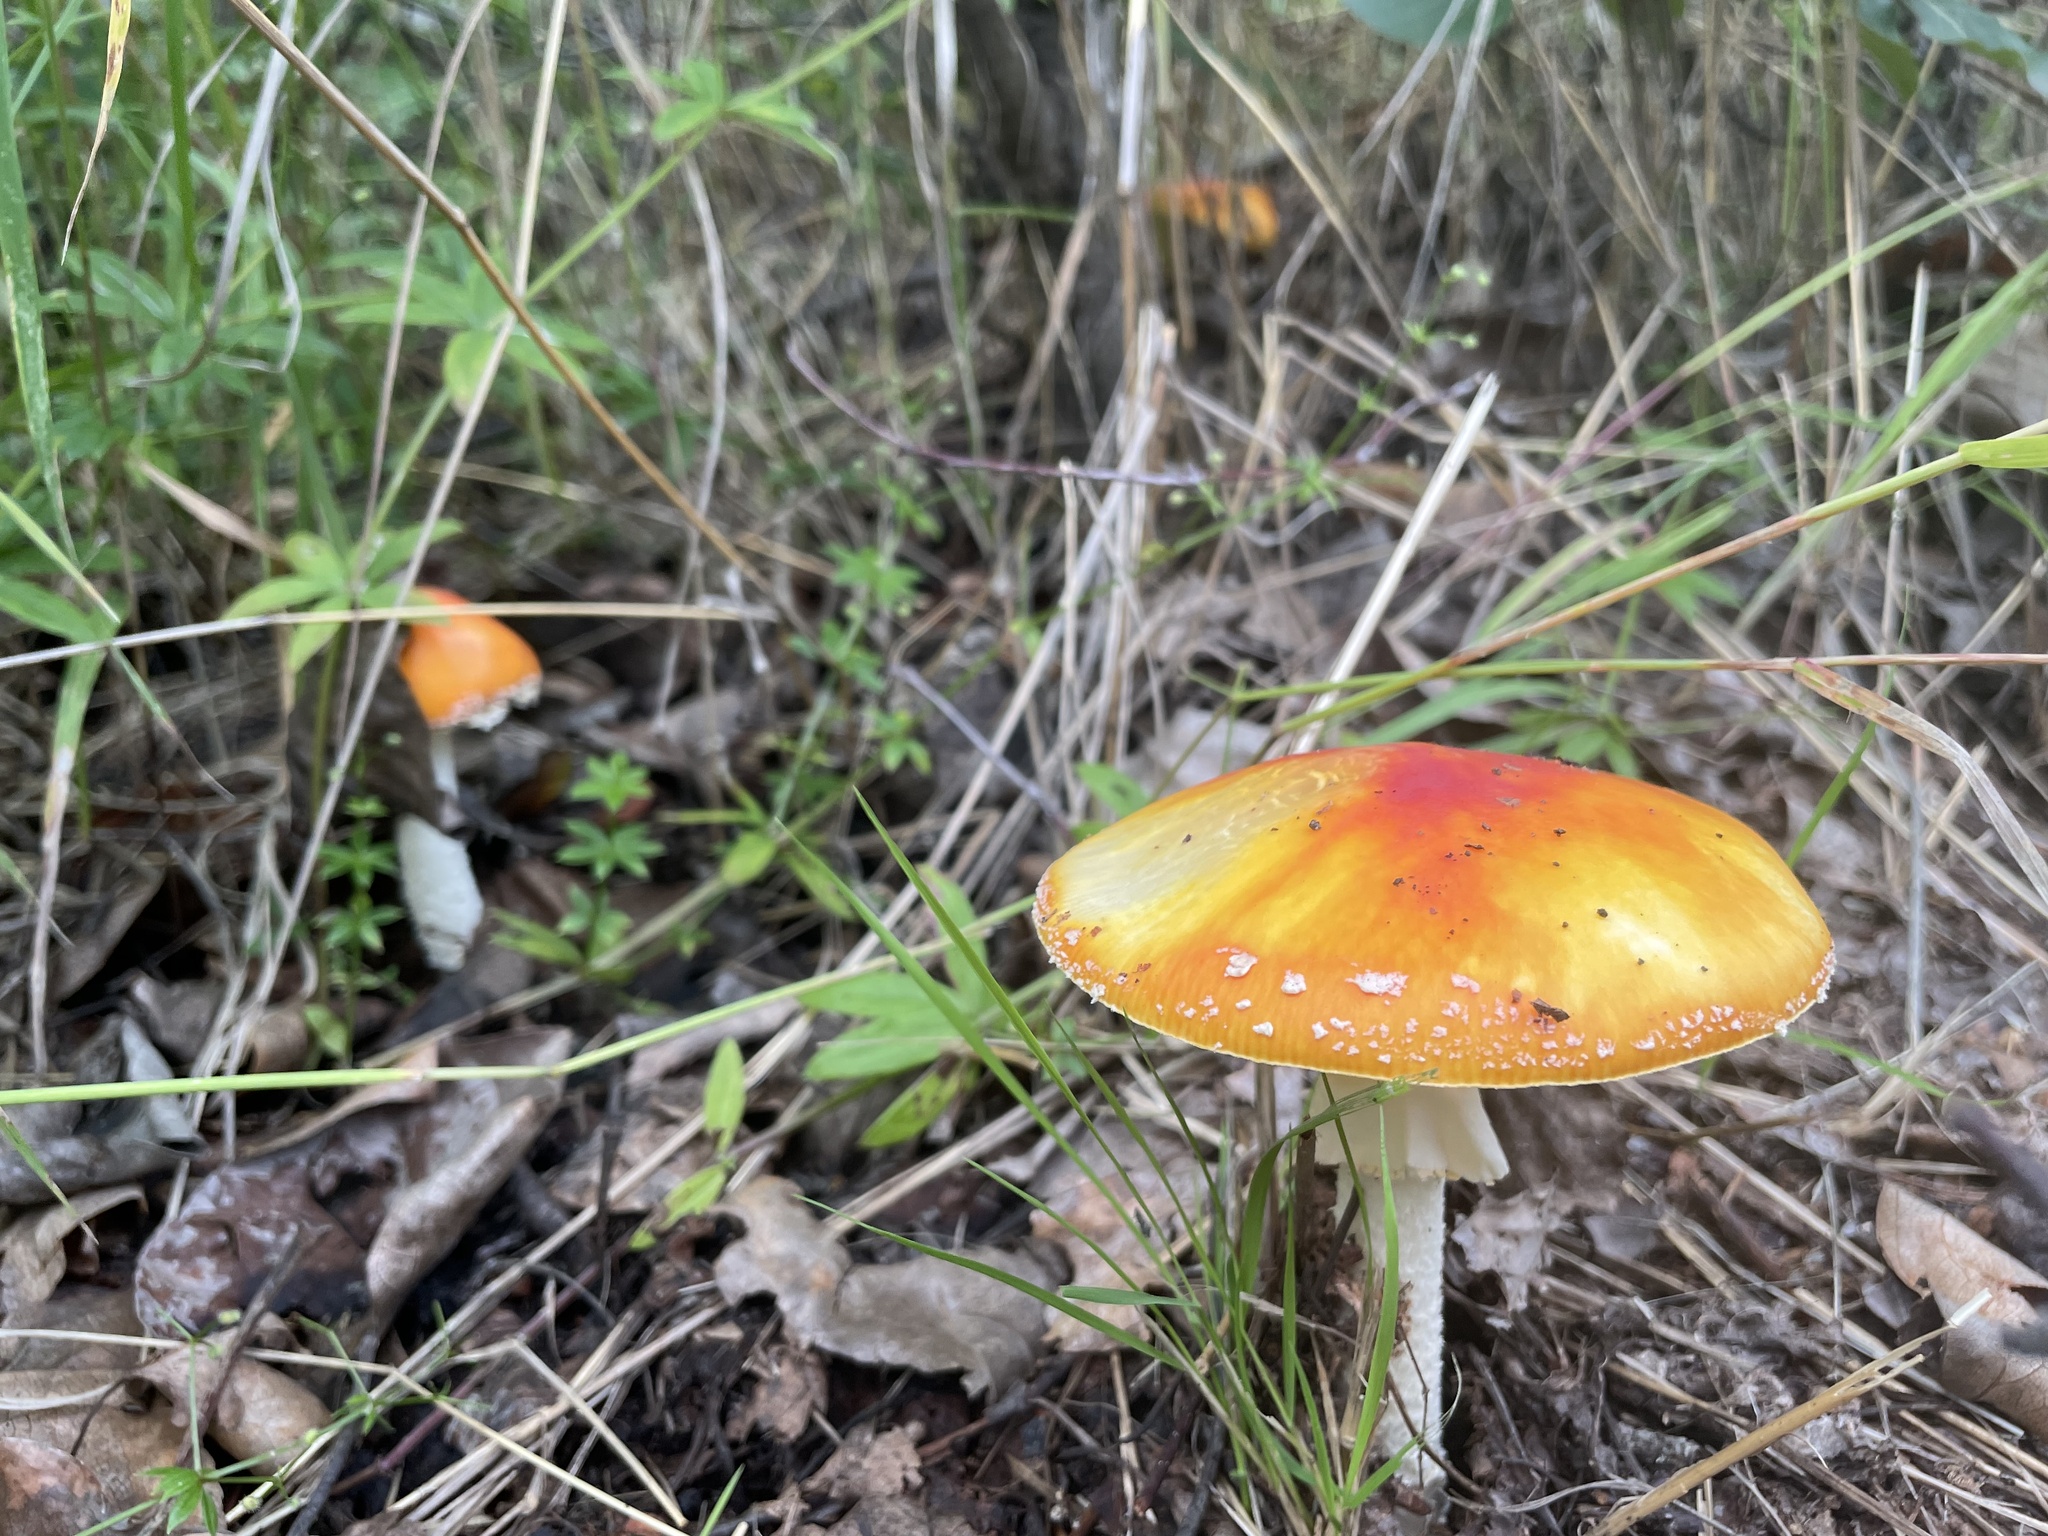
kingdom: Fungi
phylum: Basidiomycota
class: Agaricomycetes
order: Agaricales
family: Amanitaceae
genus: Amanita
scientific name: Amanita muscaria
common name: Fly agaric
